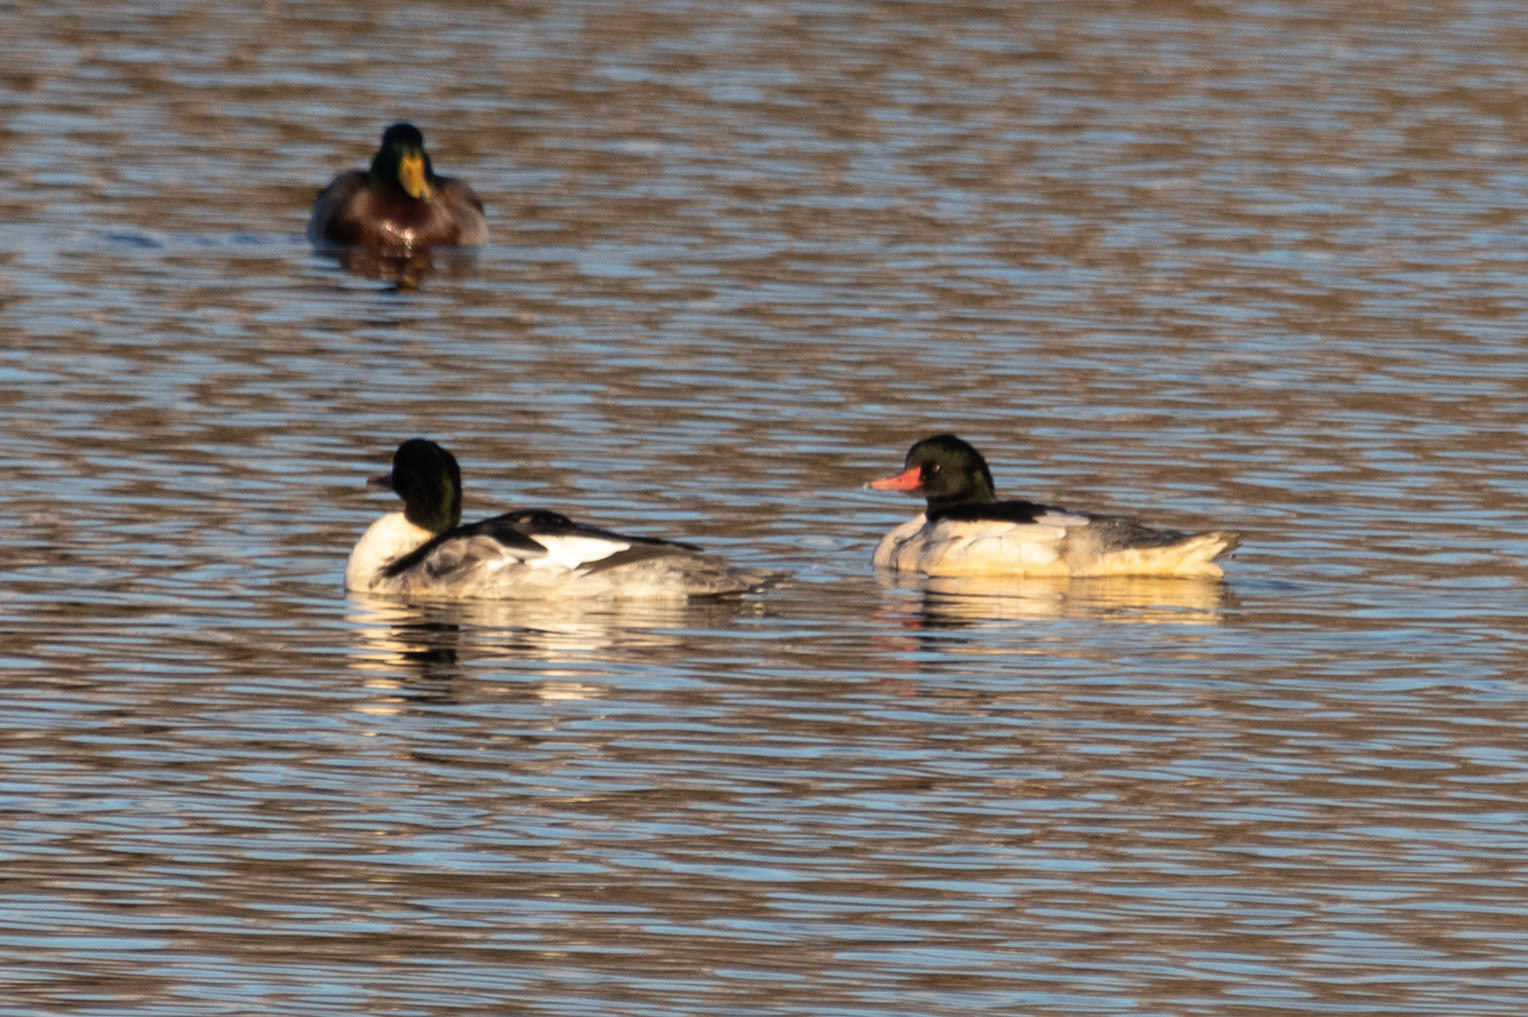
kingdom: Animalia
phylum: Chordata
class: Aves
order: Anseriformes
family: Anatidae
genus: Mergus
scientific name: Mergus merganser
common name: Common merganser
